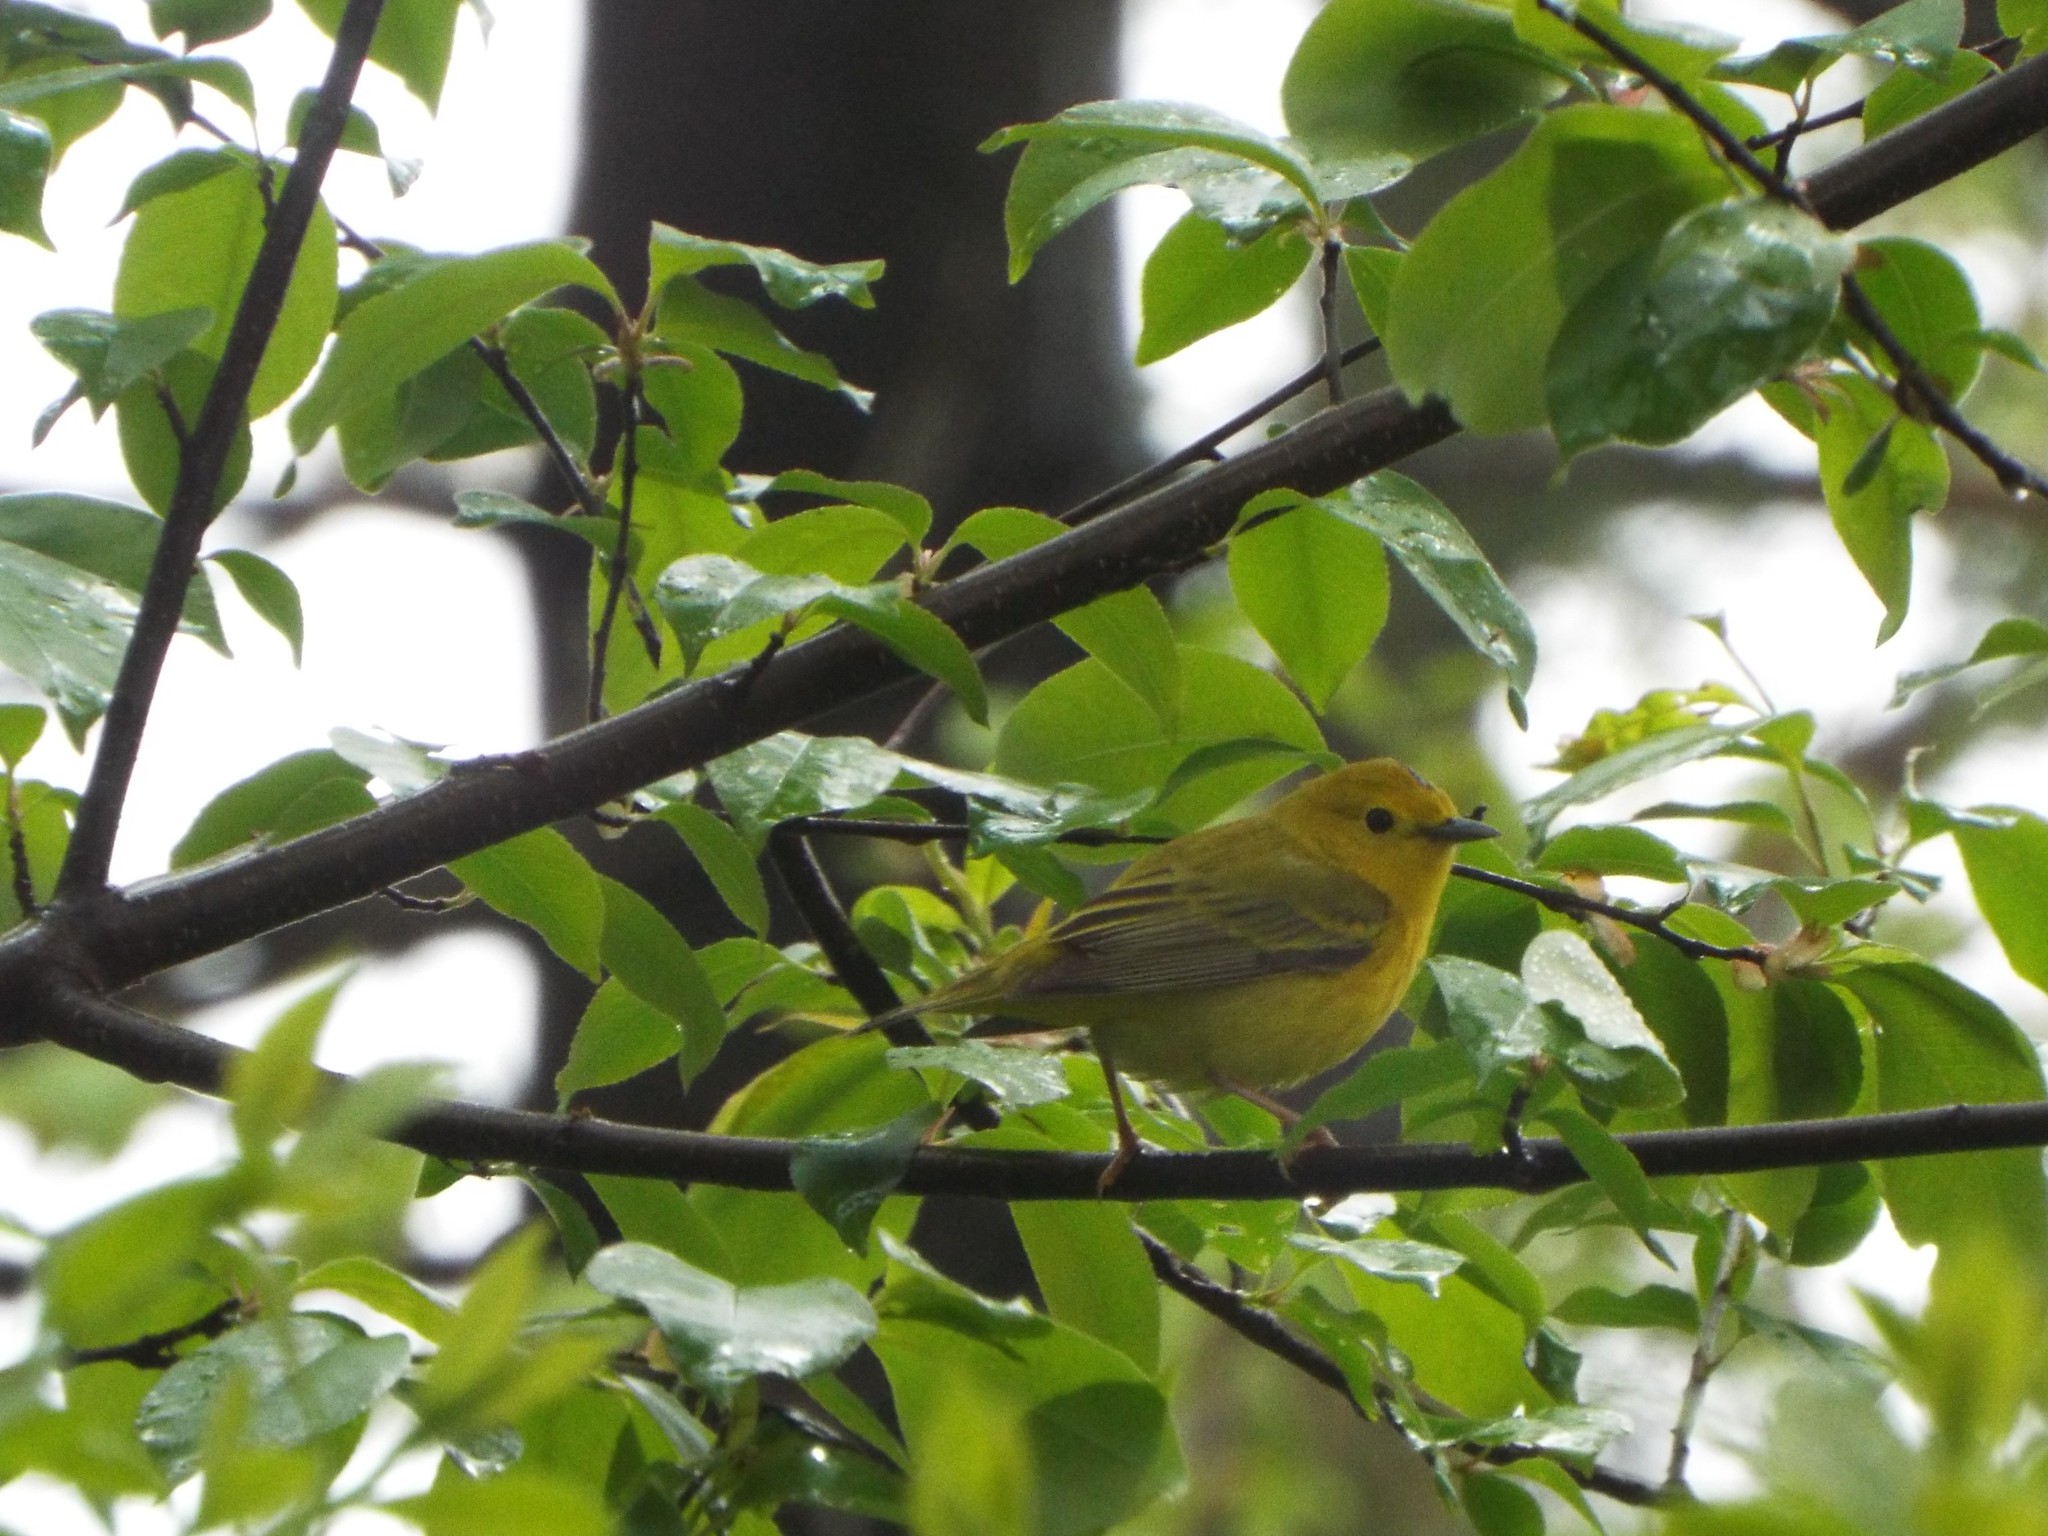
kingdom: Animalia
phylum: Chordata
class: Aves
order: Passeriformes
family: Parulidae
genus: Setophaga
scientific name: Setophaga petechia
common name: Yellow warbler
